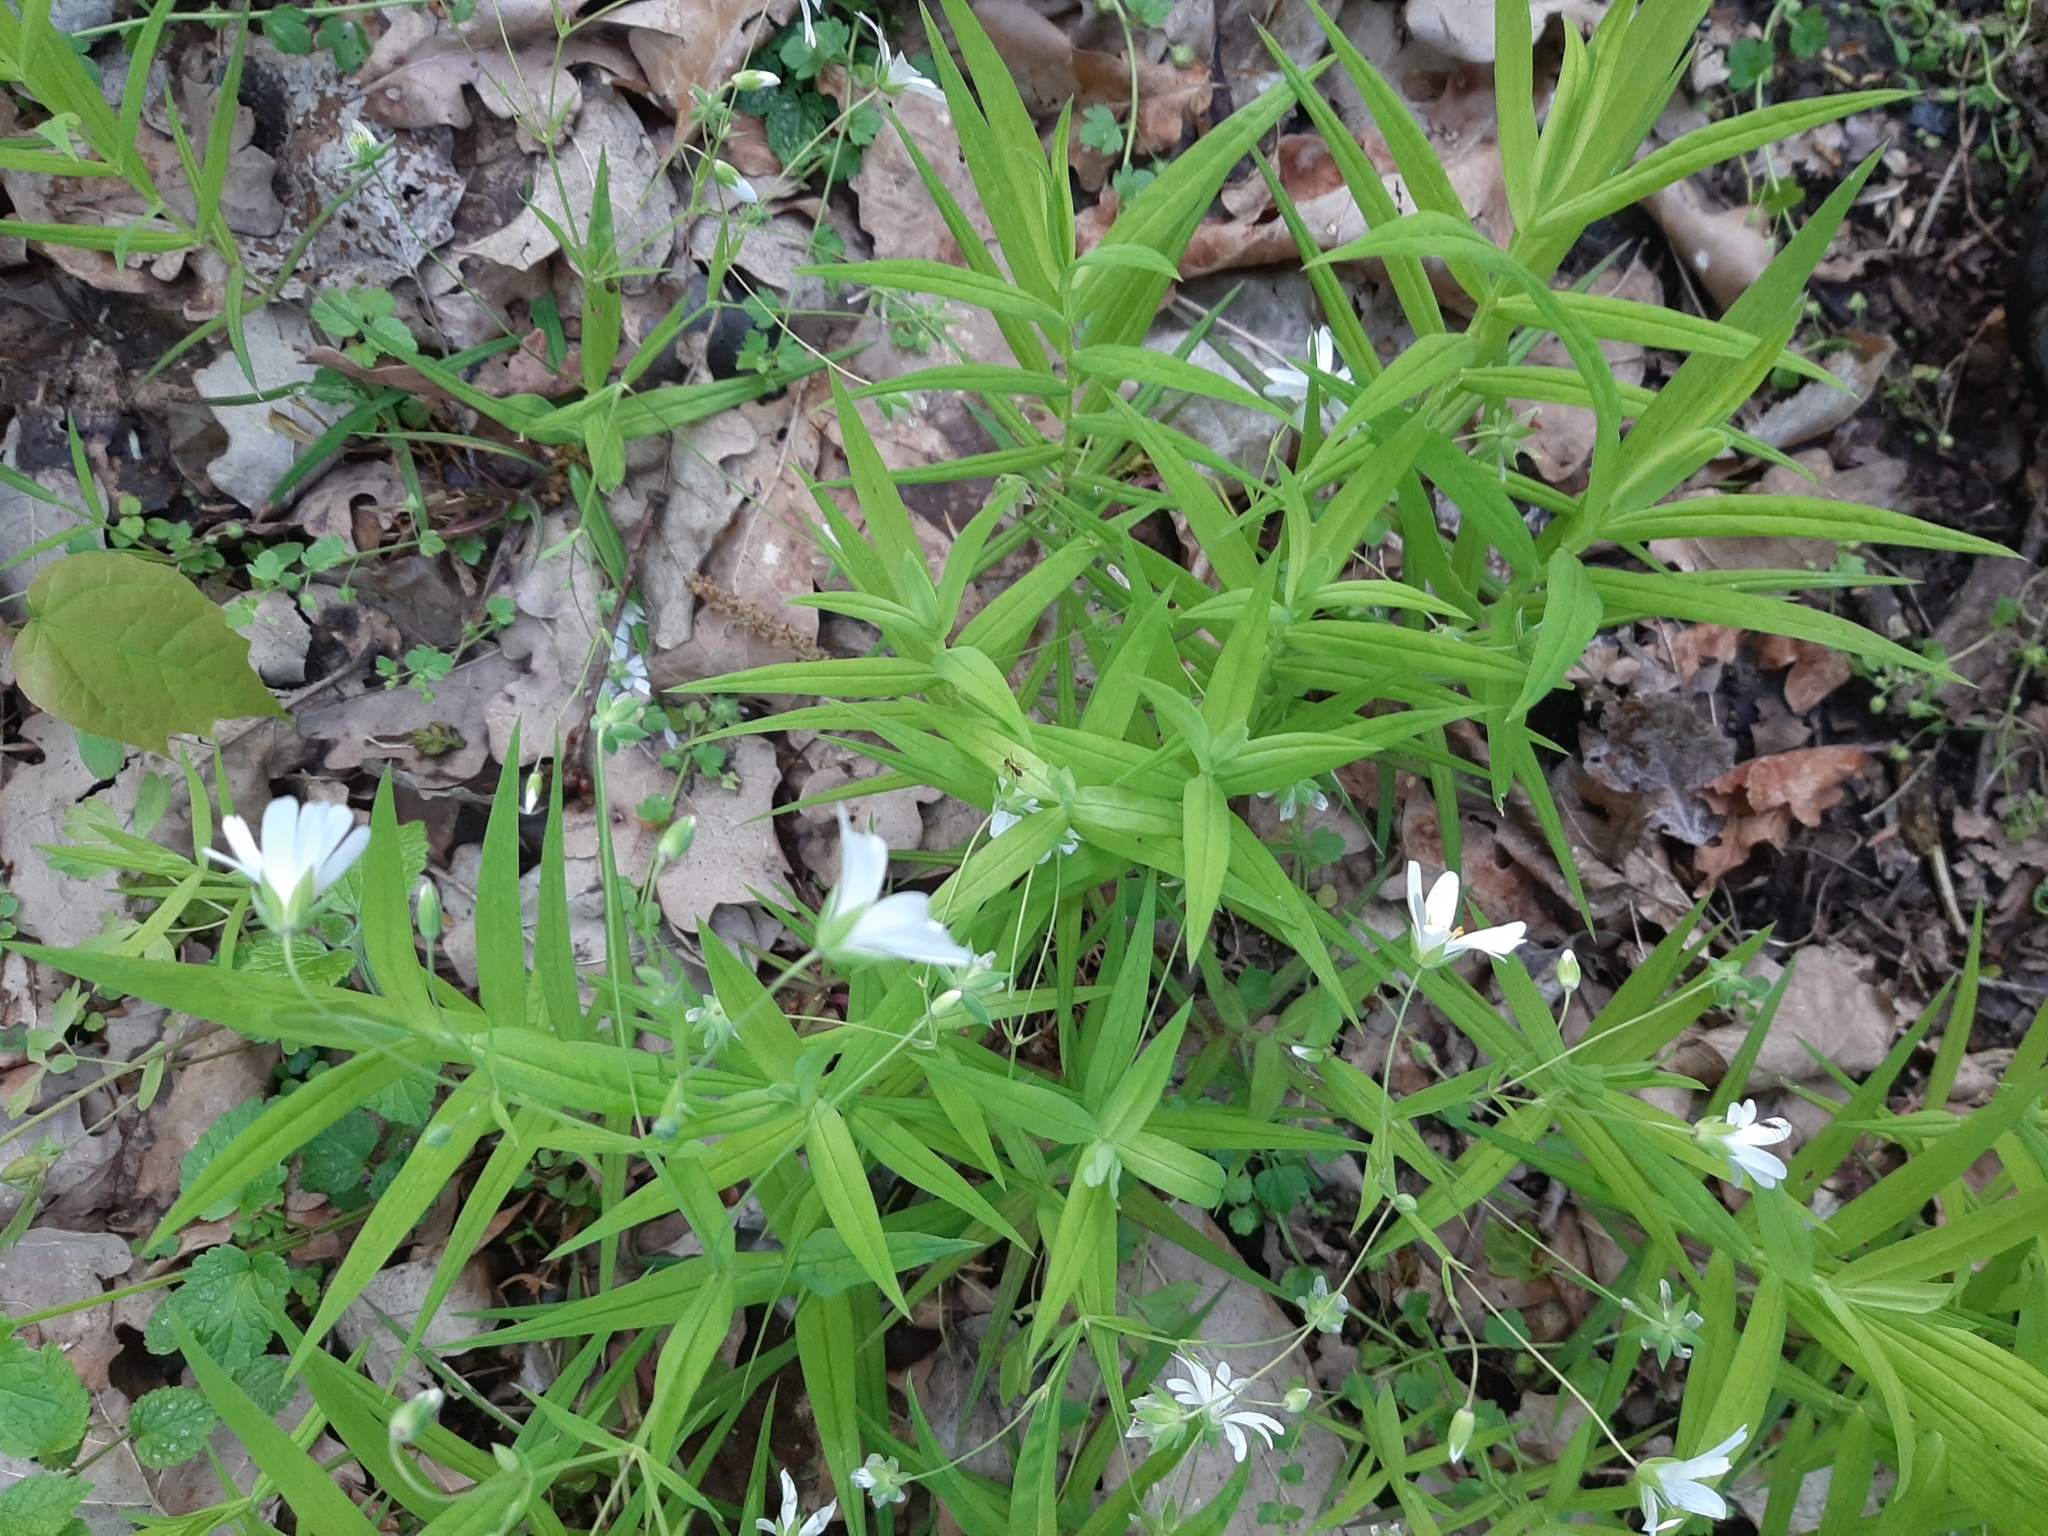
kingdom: Plantae
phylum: Tracheophyta
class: Magnoliopsida
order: Caryophyllales
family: Caryophyllaceae
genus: Rabelera
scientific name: Rabelera holostea
